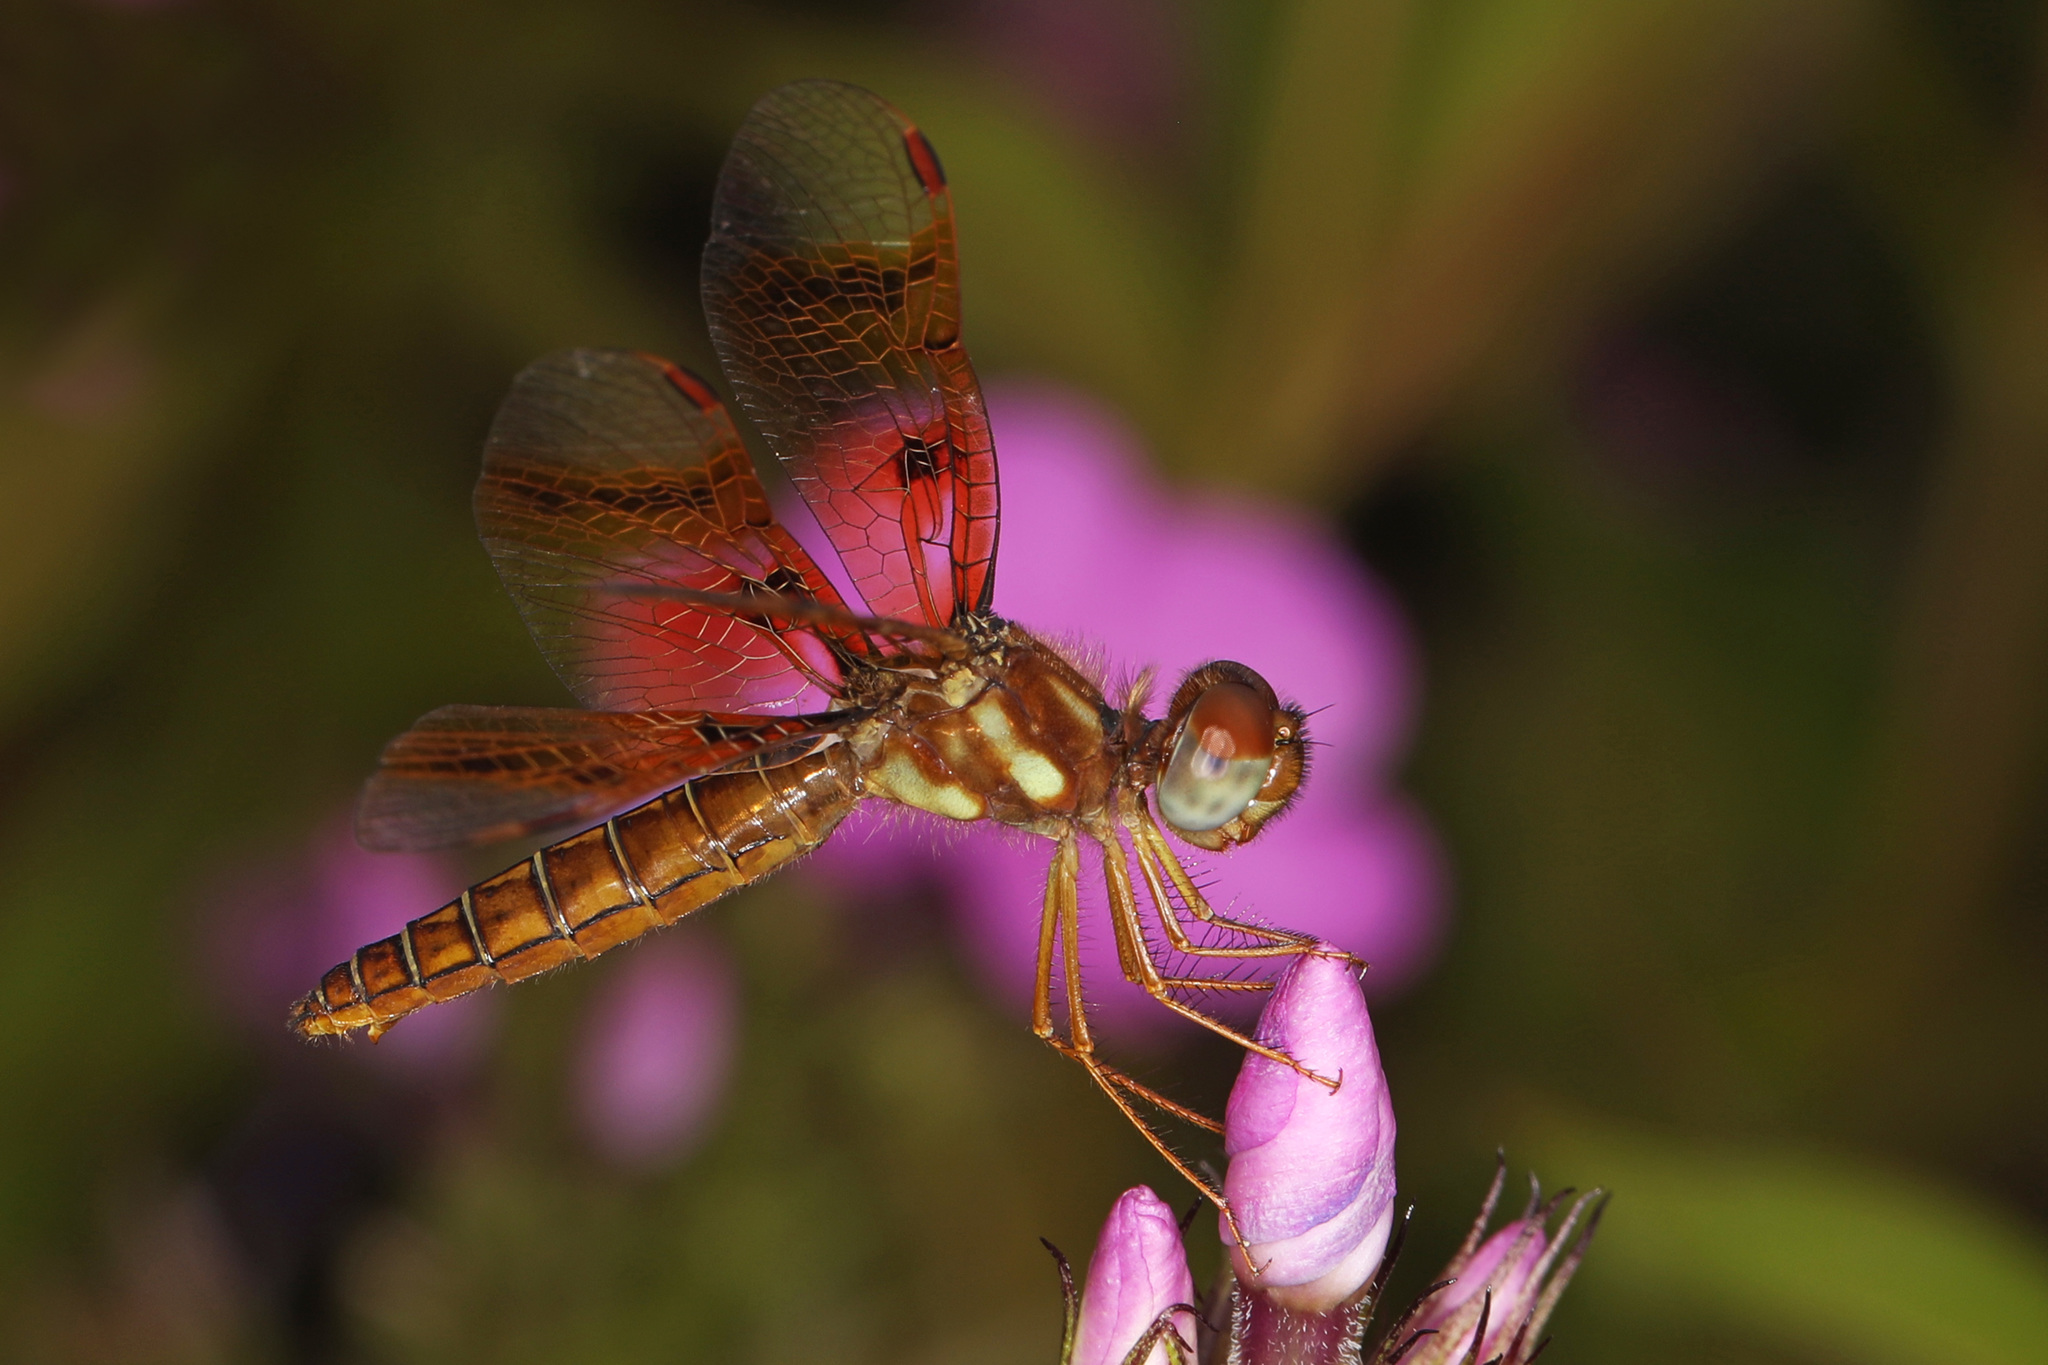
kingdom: Animalia
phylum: Arthropoda
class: Insecta
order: Odonata
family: Libellulidae
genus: Perithemis
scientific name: Perithemis tenera
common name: Eastern amberwing
